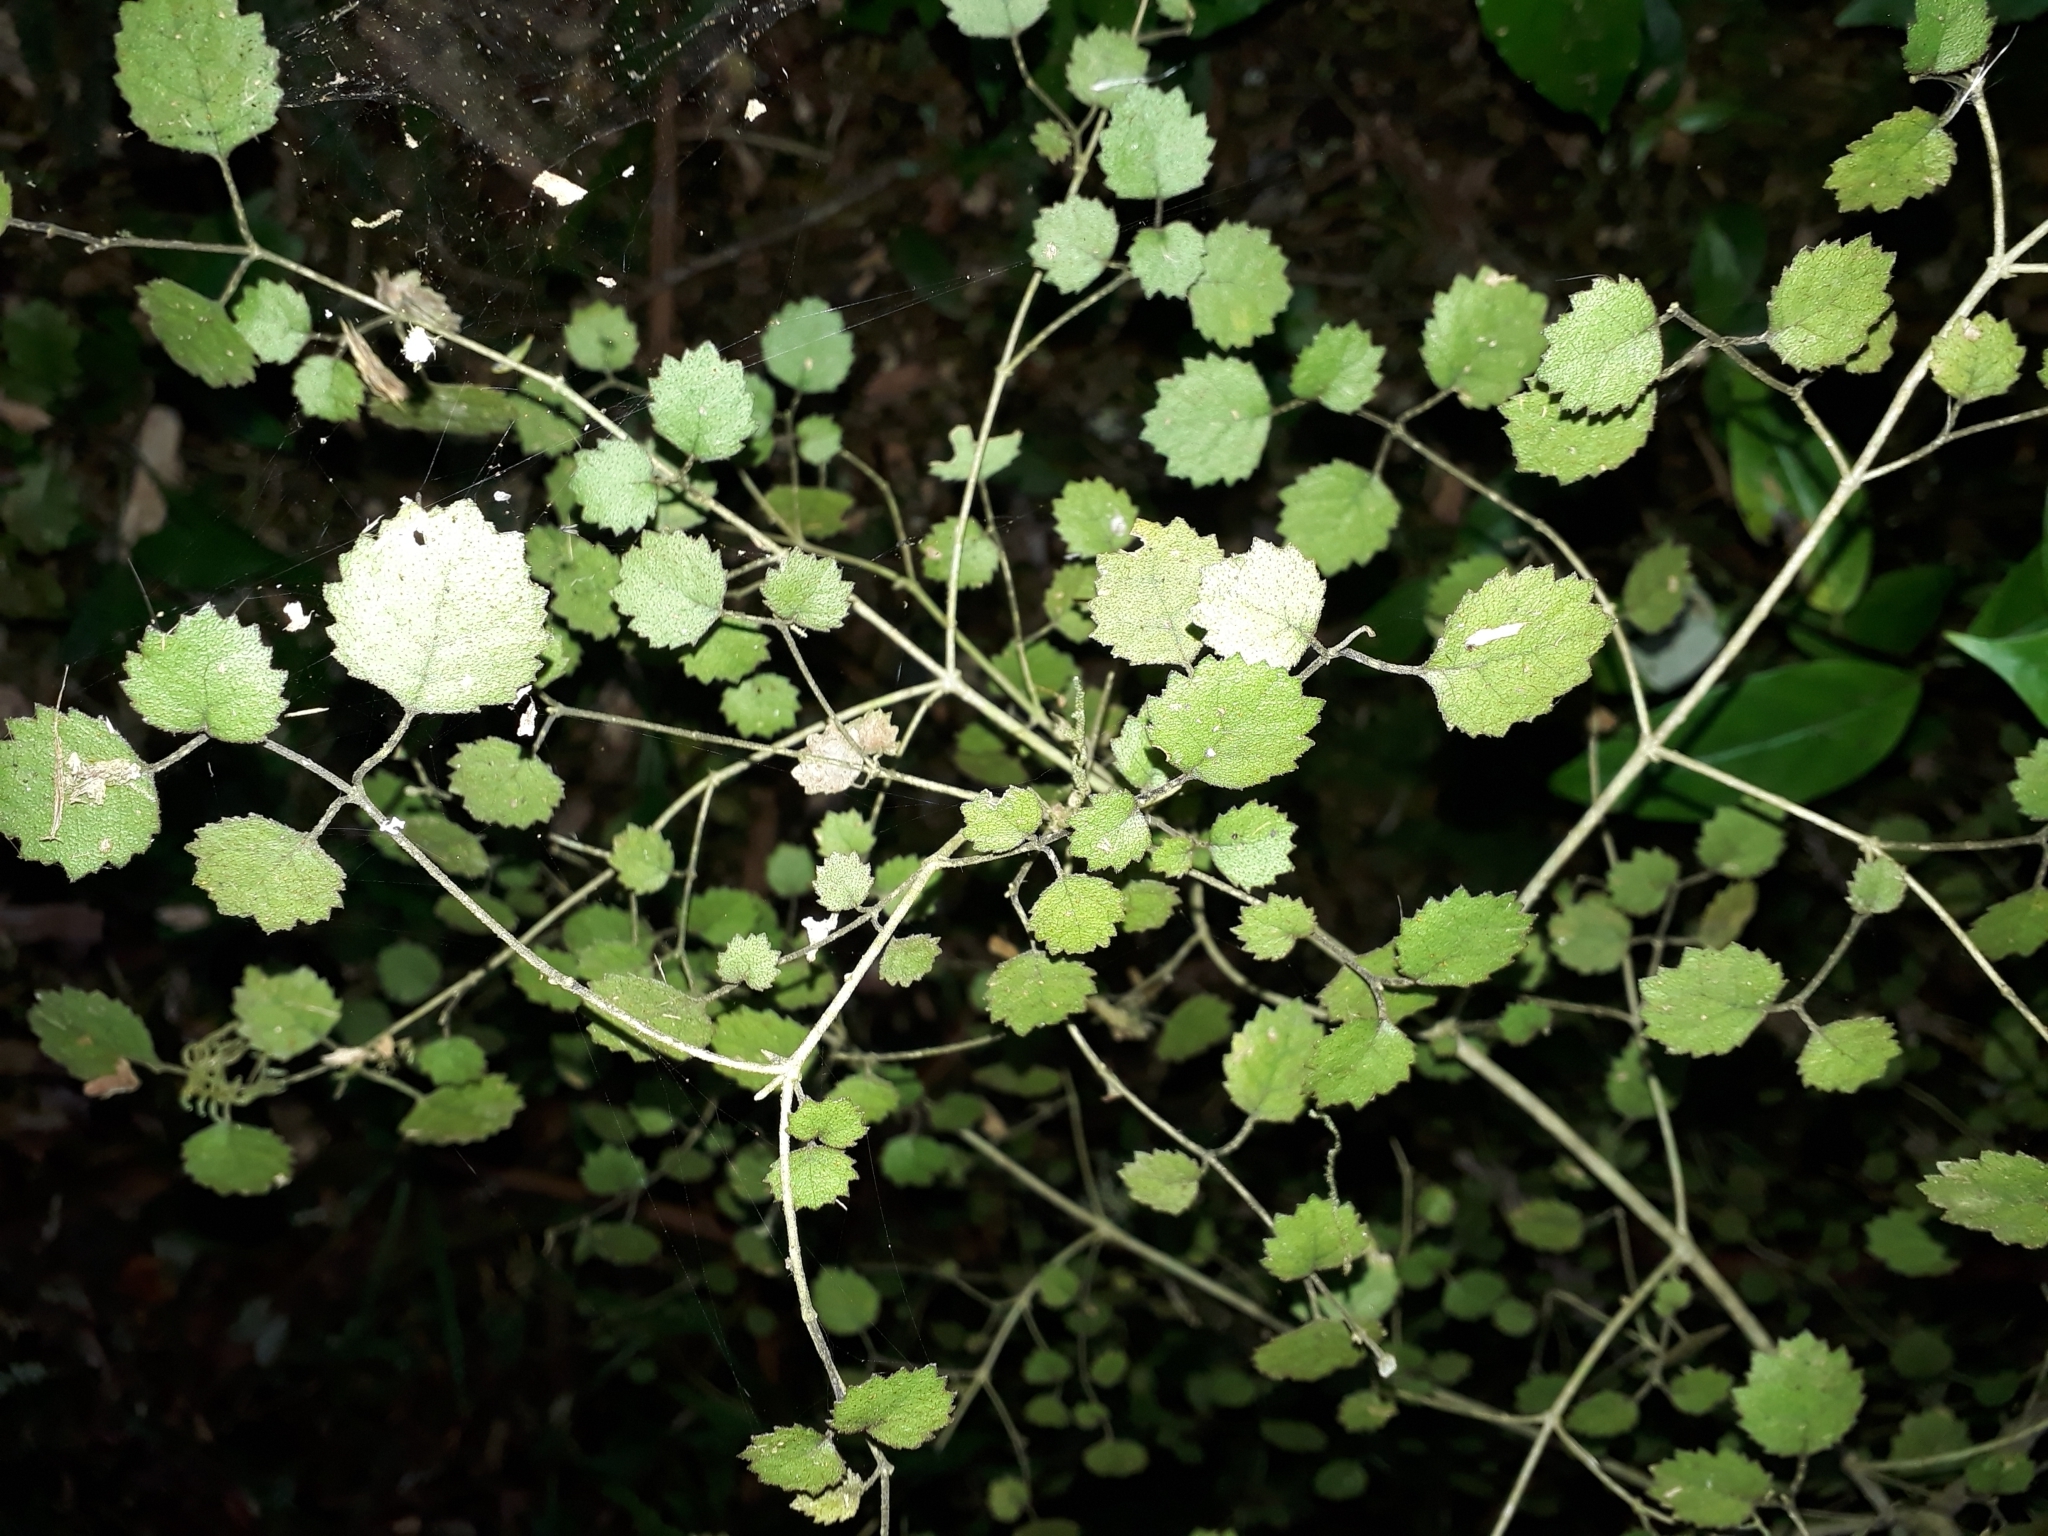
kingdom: Plantae
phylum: Tracheophyta
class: Magnoliopsida
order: Lamiales
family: Gesneriaceae
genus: Rhabdothamnus
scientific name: Rhabdothamnus solandri
